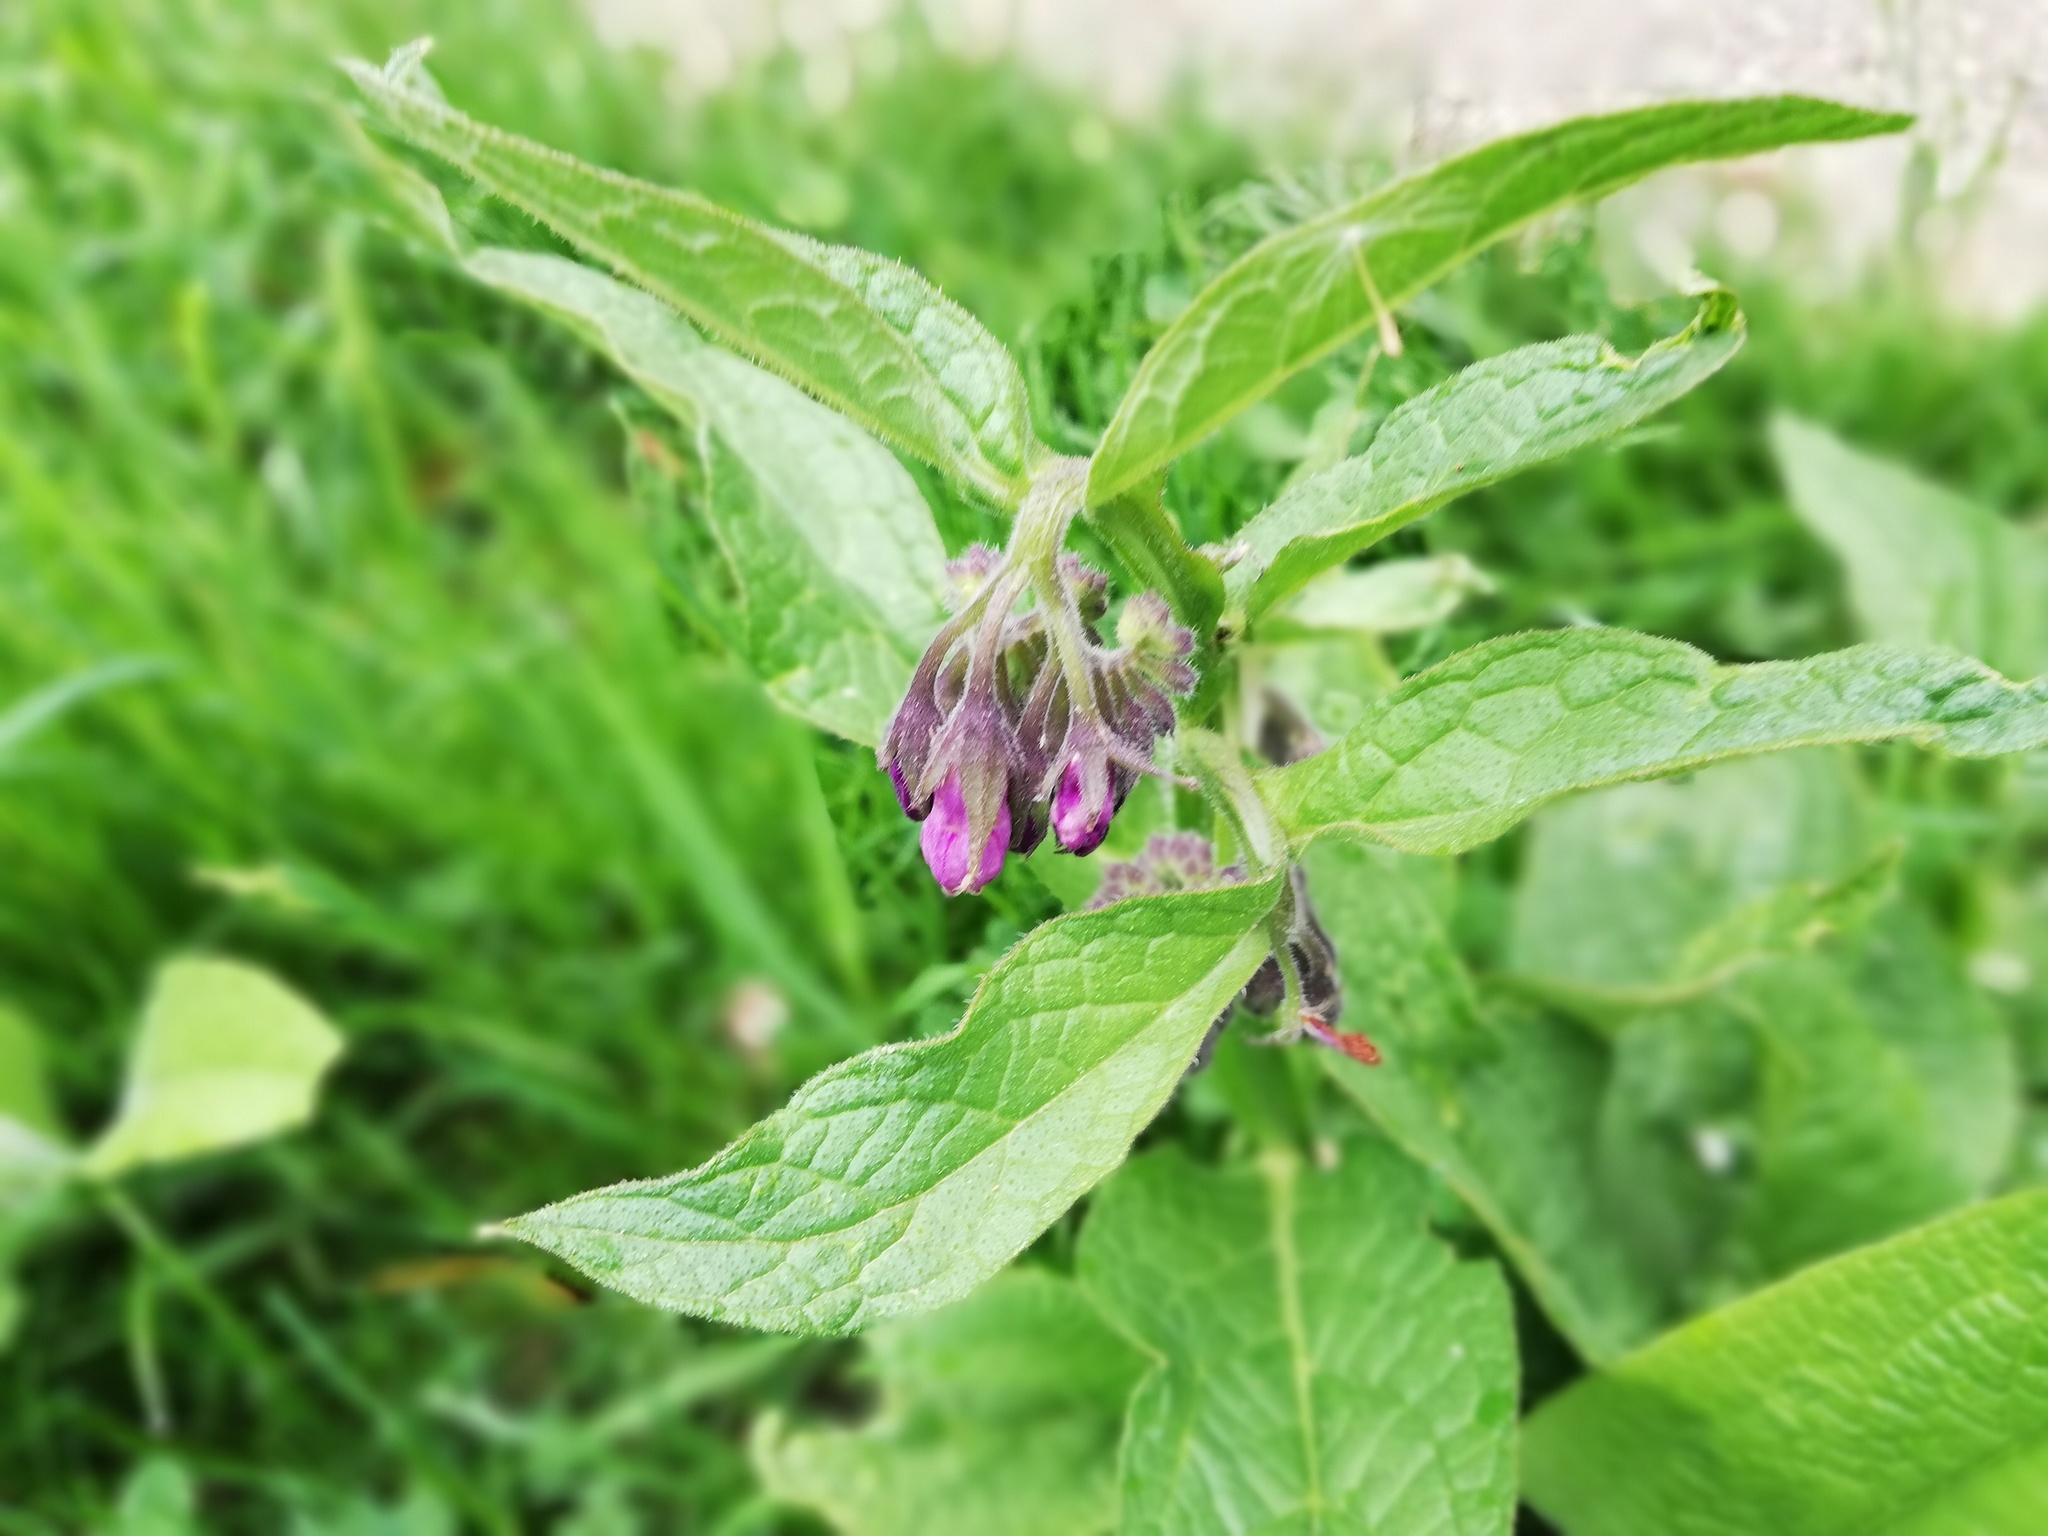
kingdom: Plantae
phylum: Tracheophyta
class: Magnoliopsida
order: Boraginales
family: Boraginaceae
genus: Symphytum
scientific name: Symphytum officinale
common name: Common comfrey
